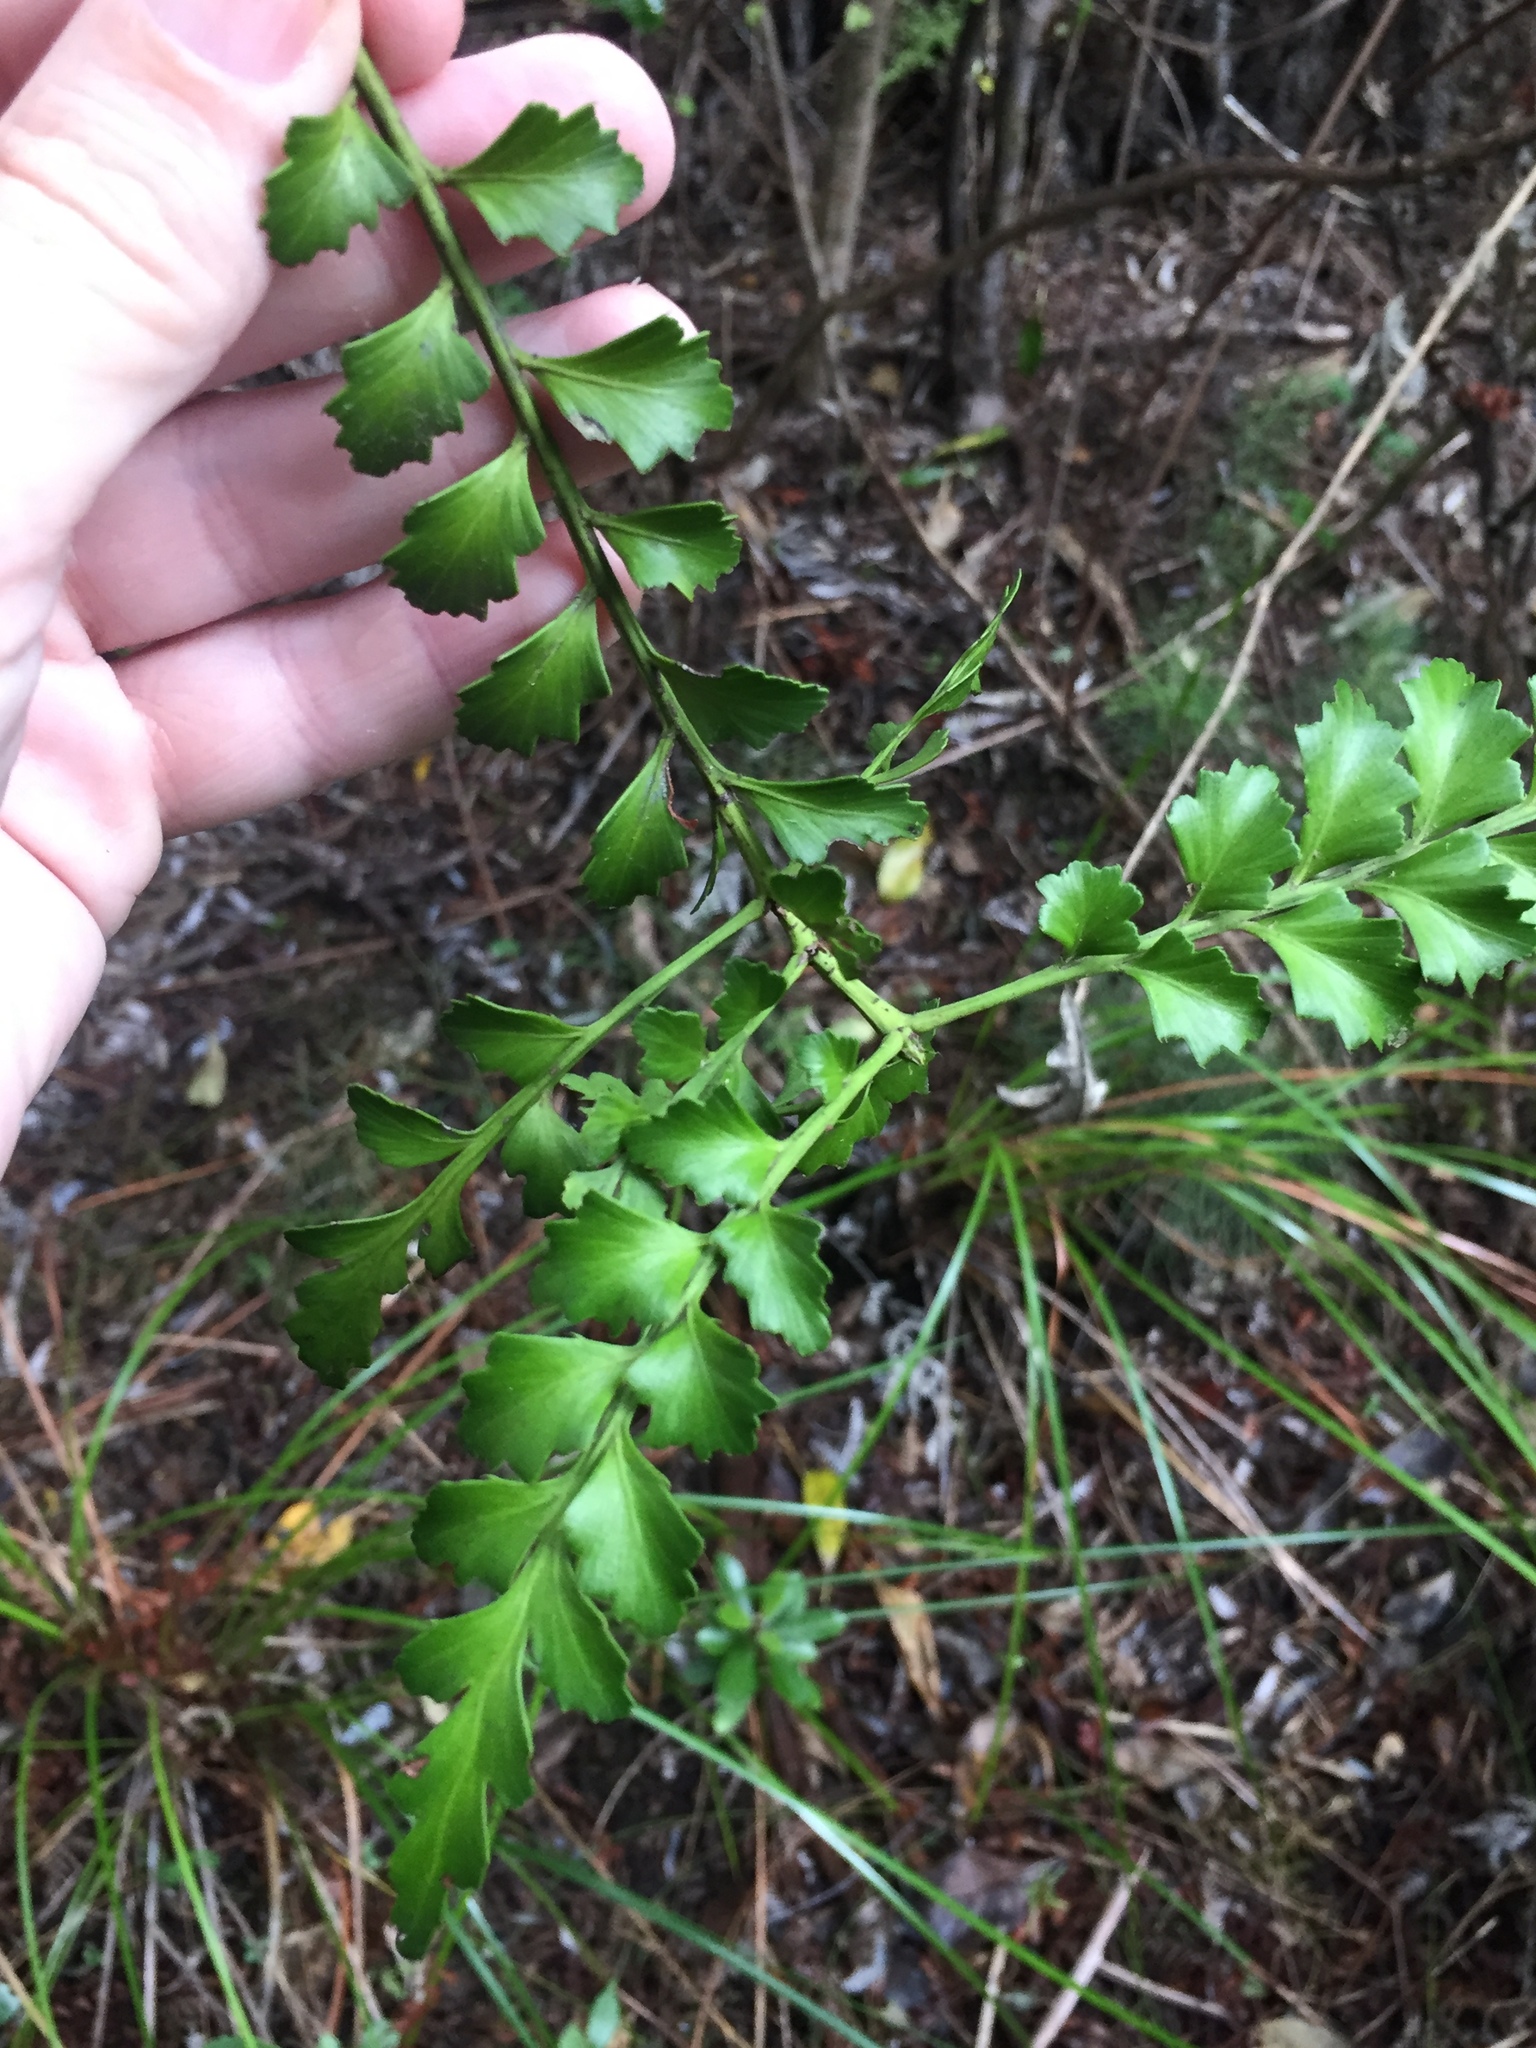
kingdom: Plantae
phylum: Tracheophyta
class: Pinopsida
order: Pinales
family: Phyllocladaceae
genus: Phyllocladus
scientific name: Phyllocladus trichomanoides
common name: Celery pine
